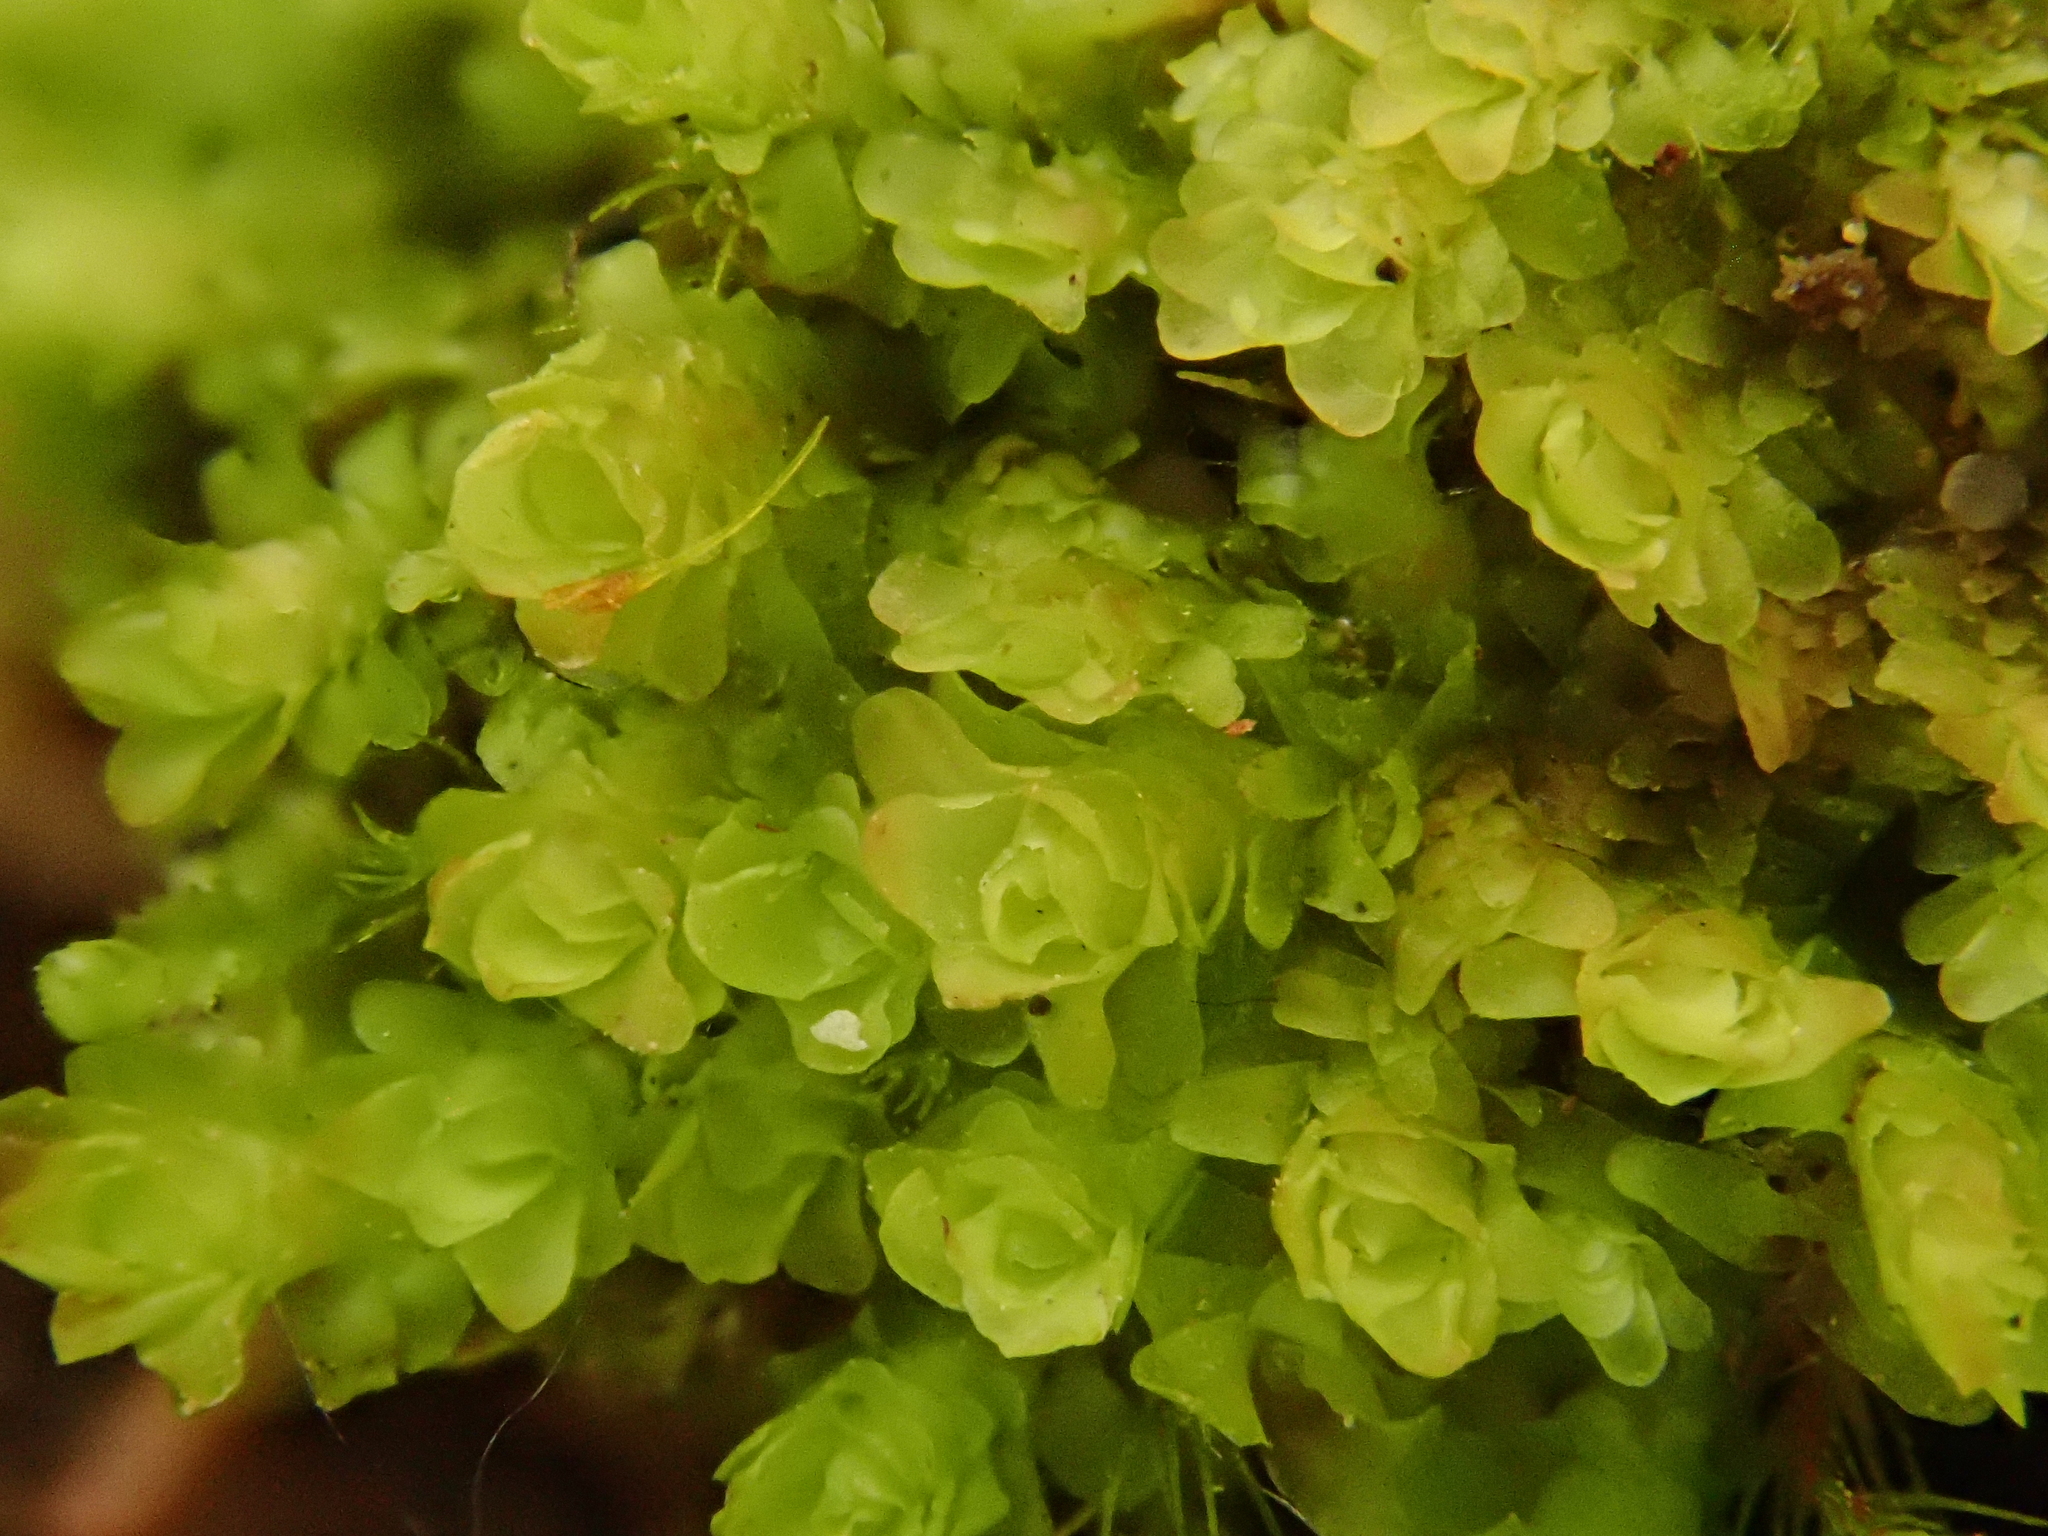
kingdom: Plantae
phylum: Marchantiophyta
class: Jungermanniopsida
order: Jungermanniales
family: Scapaniaceae
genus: Diplophyllum
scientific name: Diplophyllum obtusifolium
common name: Blunt-leaved earwort
